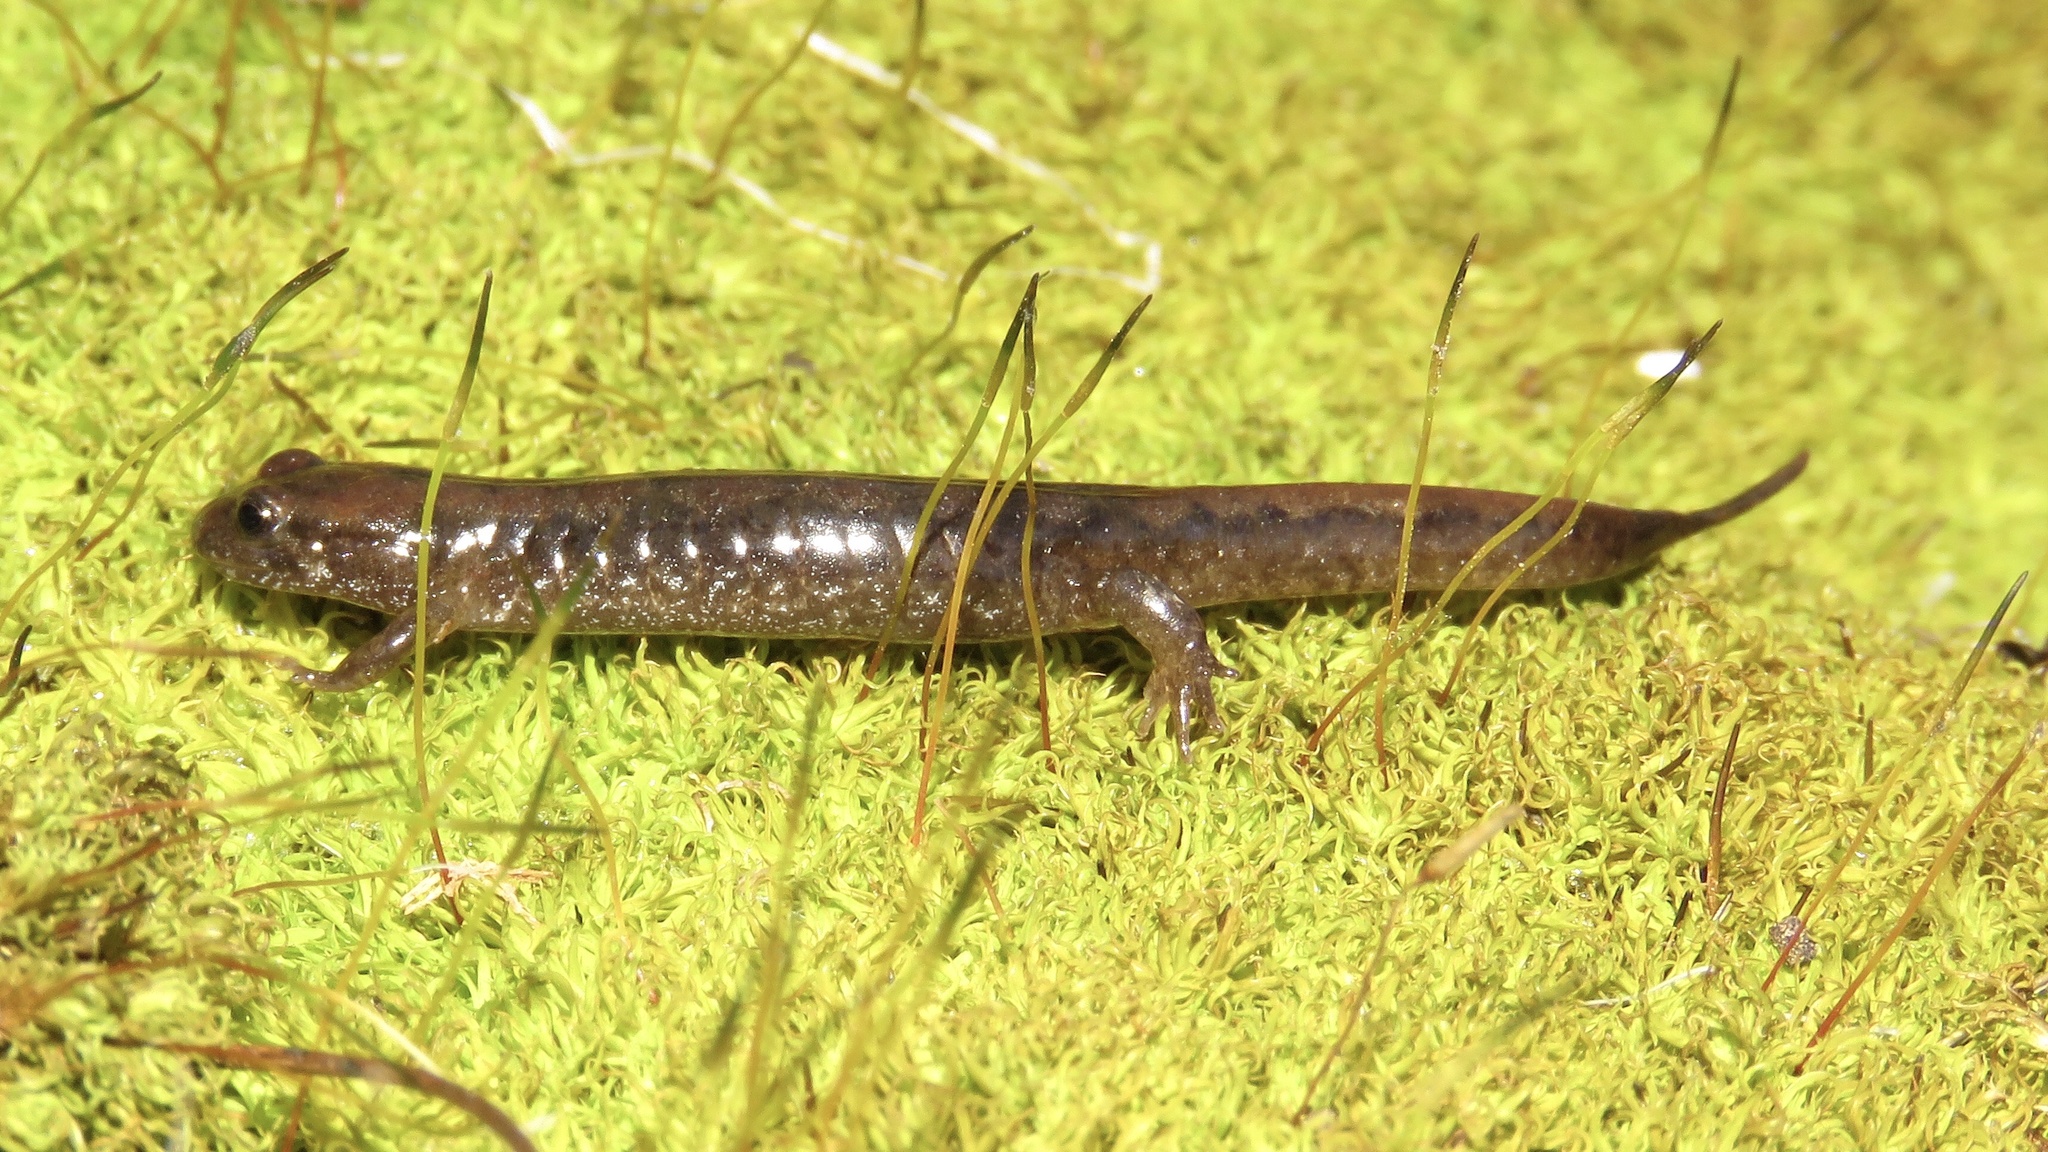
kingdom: Animalia
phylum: Chordata
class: Amphibia
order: Caudata
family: Plethodontidae
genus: Desmognathus
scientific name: Desmognathus fuscus
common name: Northern dusky salamander
